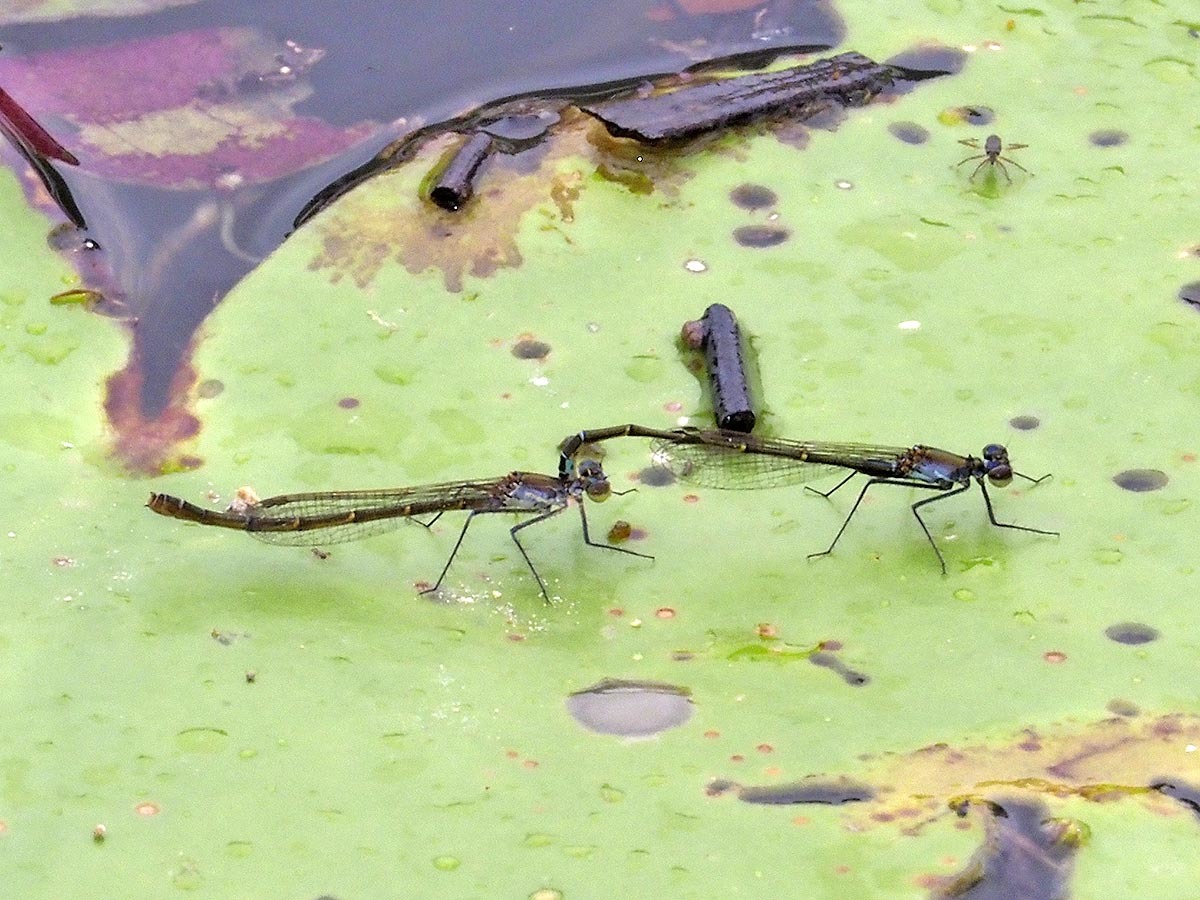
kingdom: Animalia
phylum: Arthropoda
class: Insecta
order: Odonata
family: Coenagrionidae
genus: Austrocnemis
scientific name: Austrocnemis maccullochi
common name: Tiny longlegs
